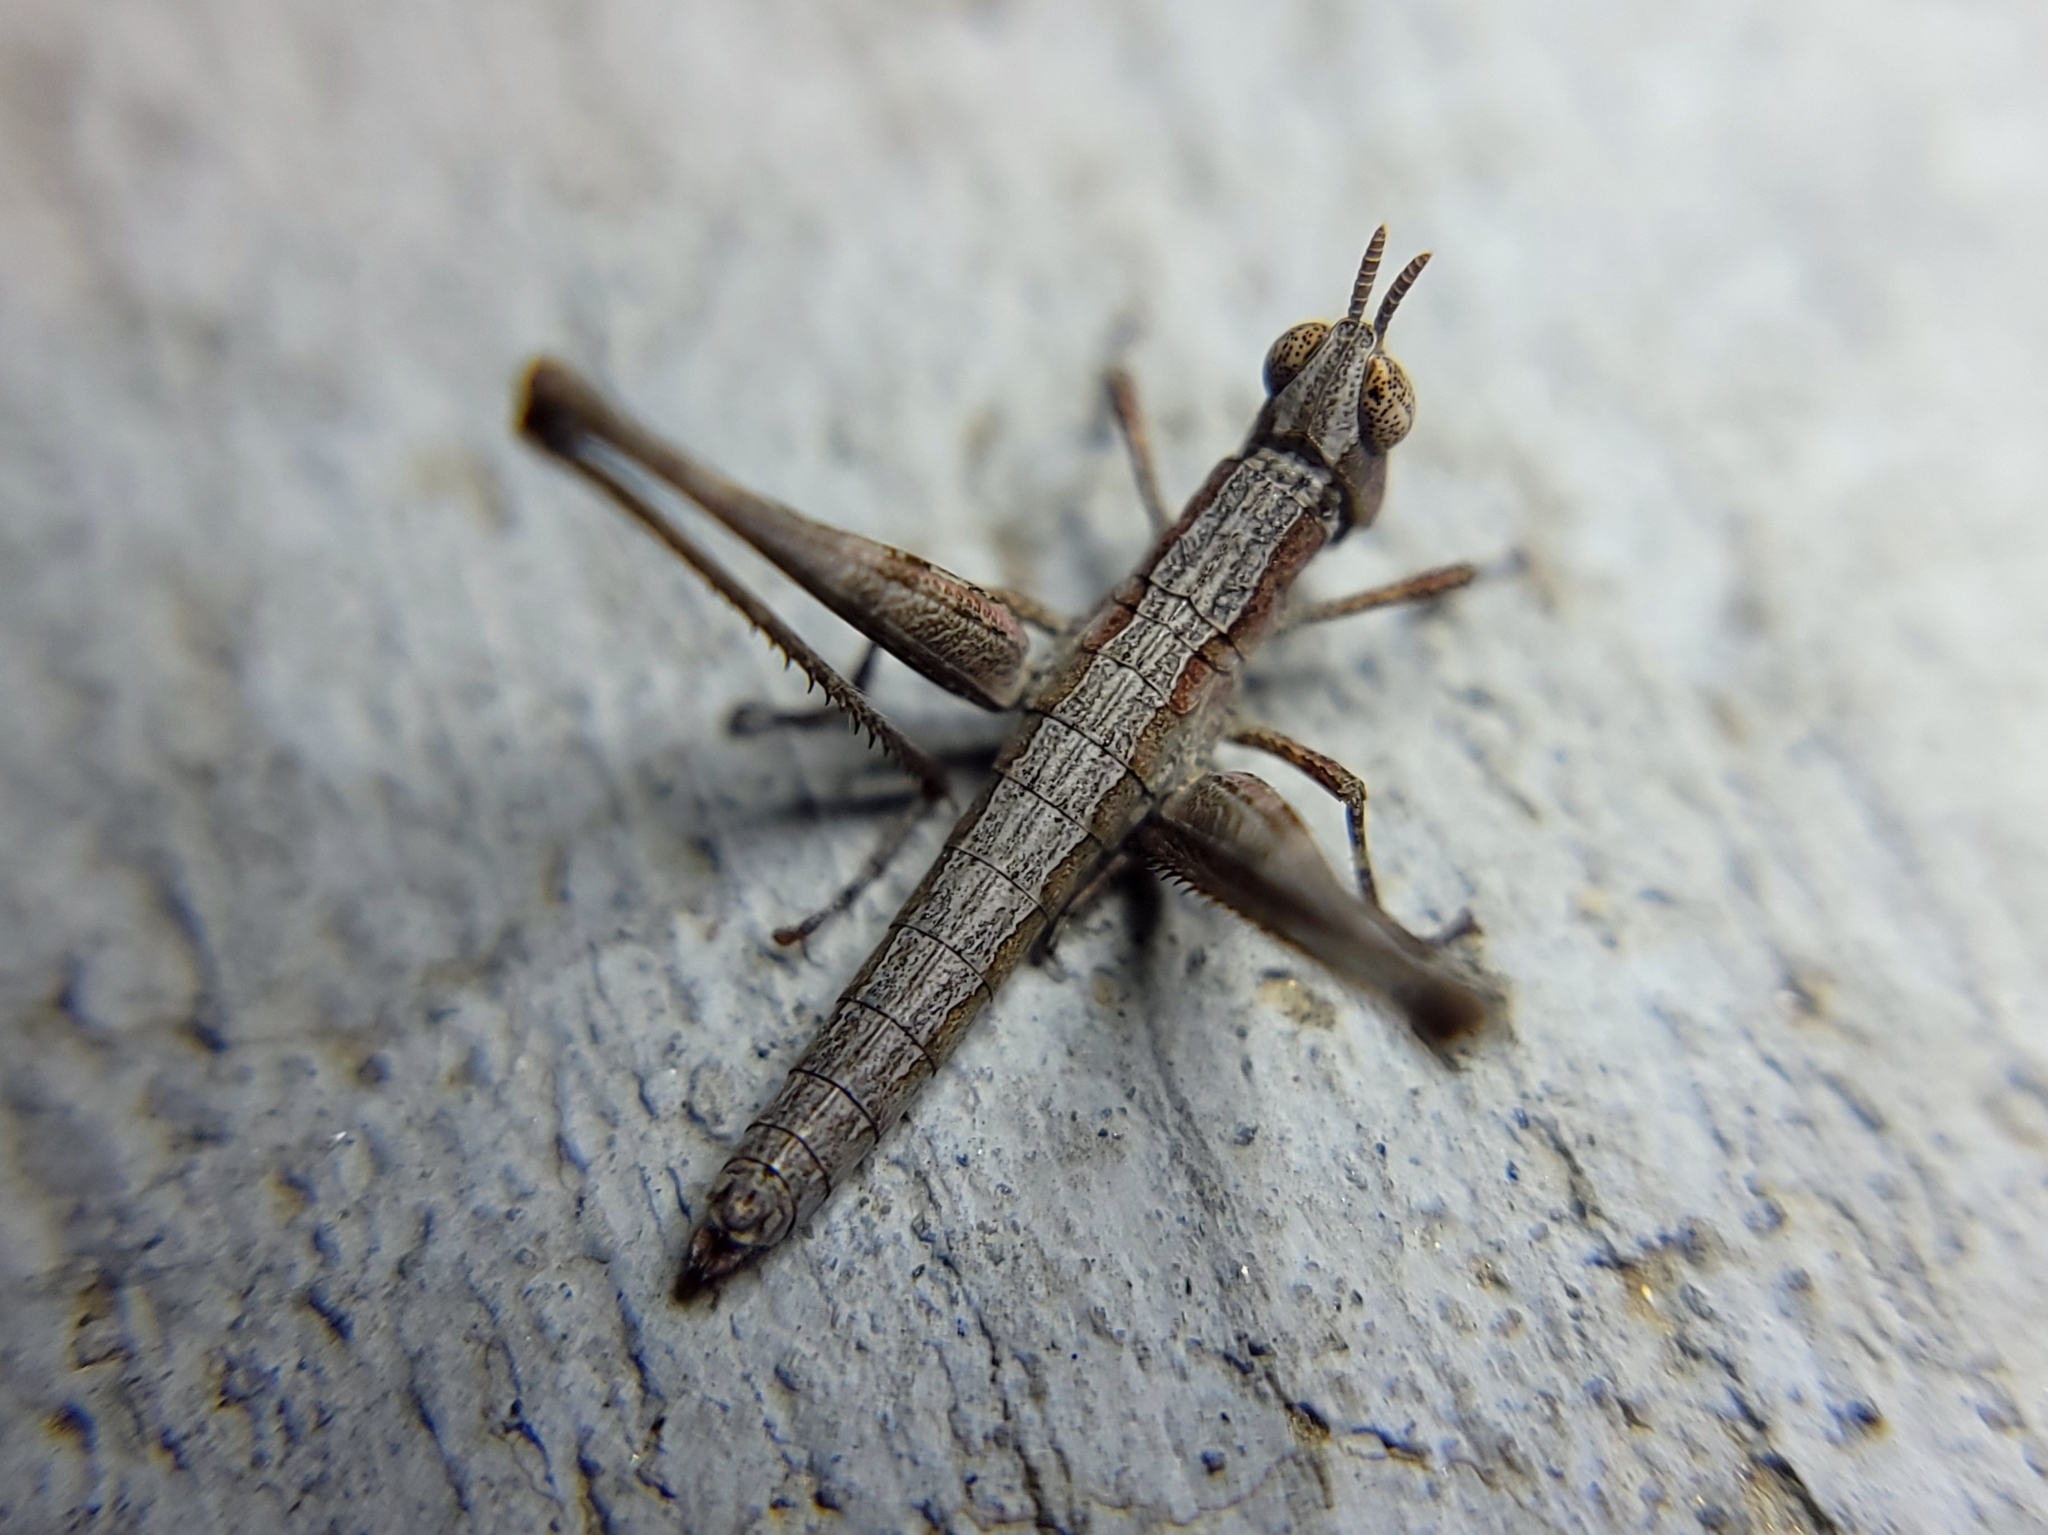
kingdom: Animalia
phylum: Arthropoda
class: Insecta
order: Orthoptera
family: Eumastacidae
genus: Morsea
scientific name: Morsea californica
